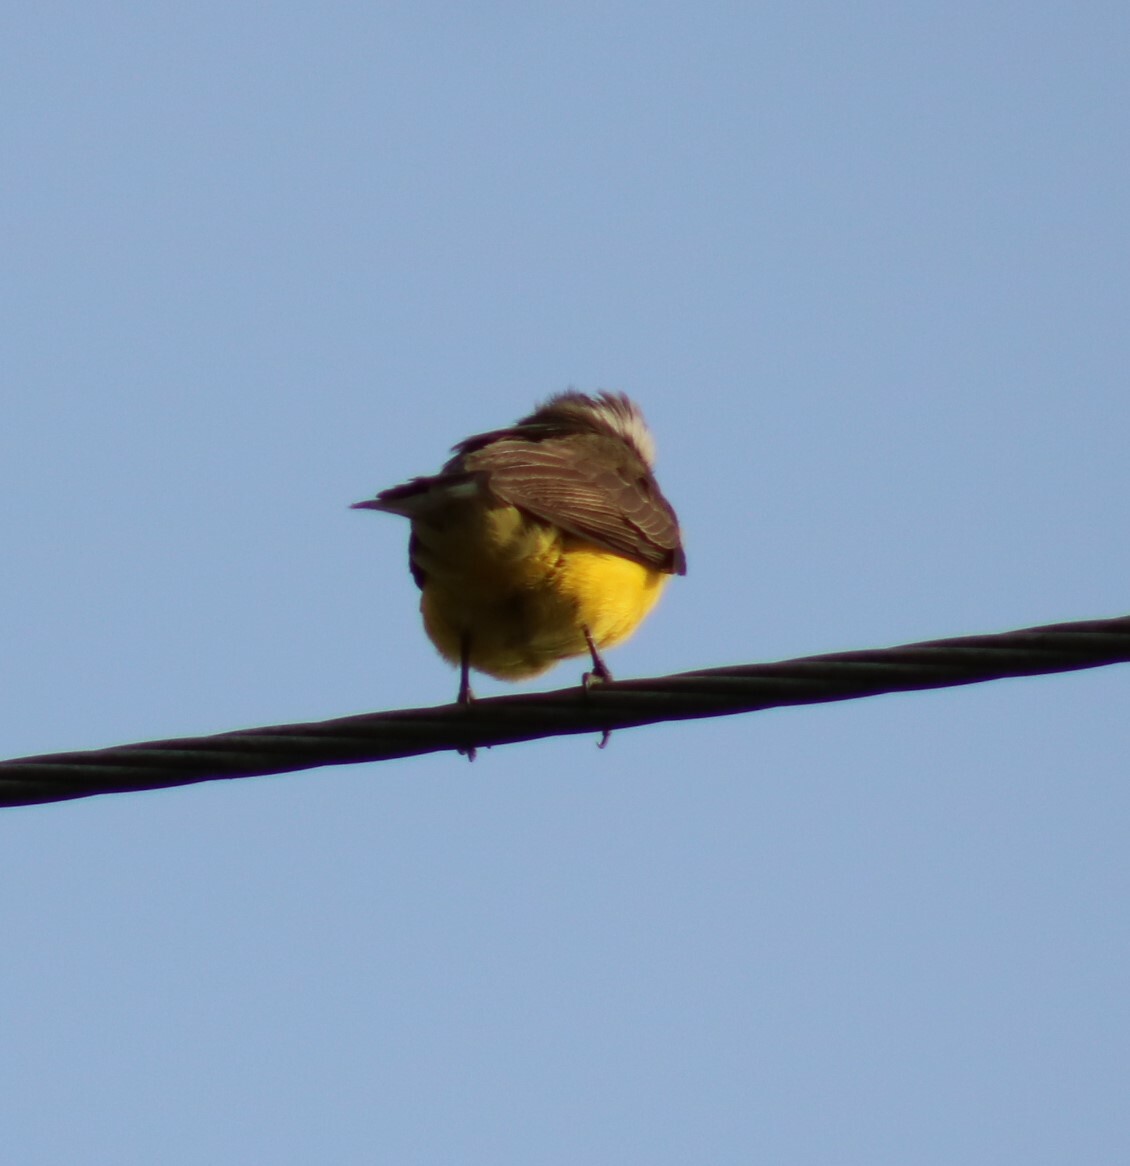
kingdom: Animalia
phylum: Chordata
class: Aves
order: Passeriformes
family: Tyrannidae
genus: Myiozetetes
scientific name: Myiozetetes similis
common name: Social flycatcher
